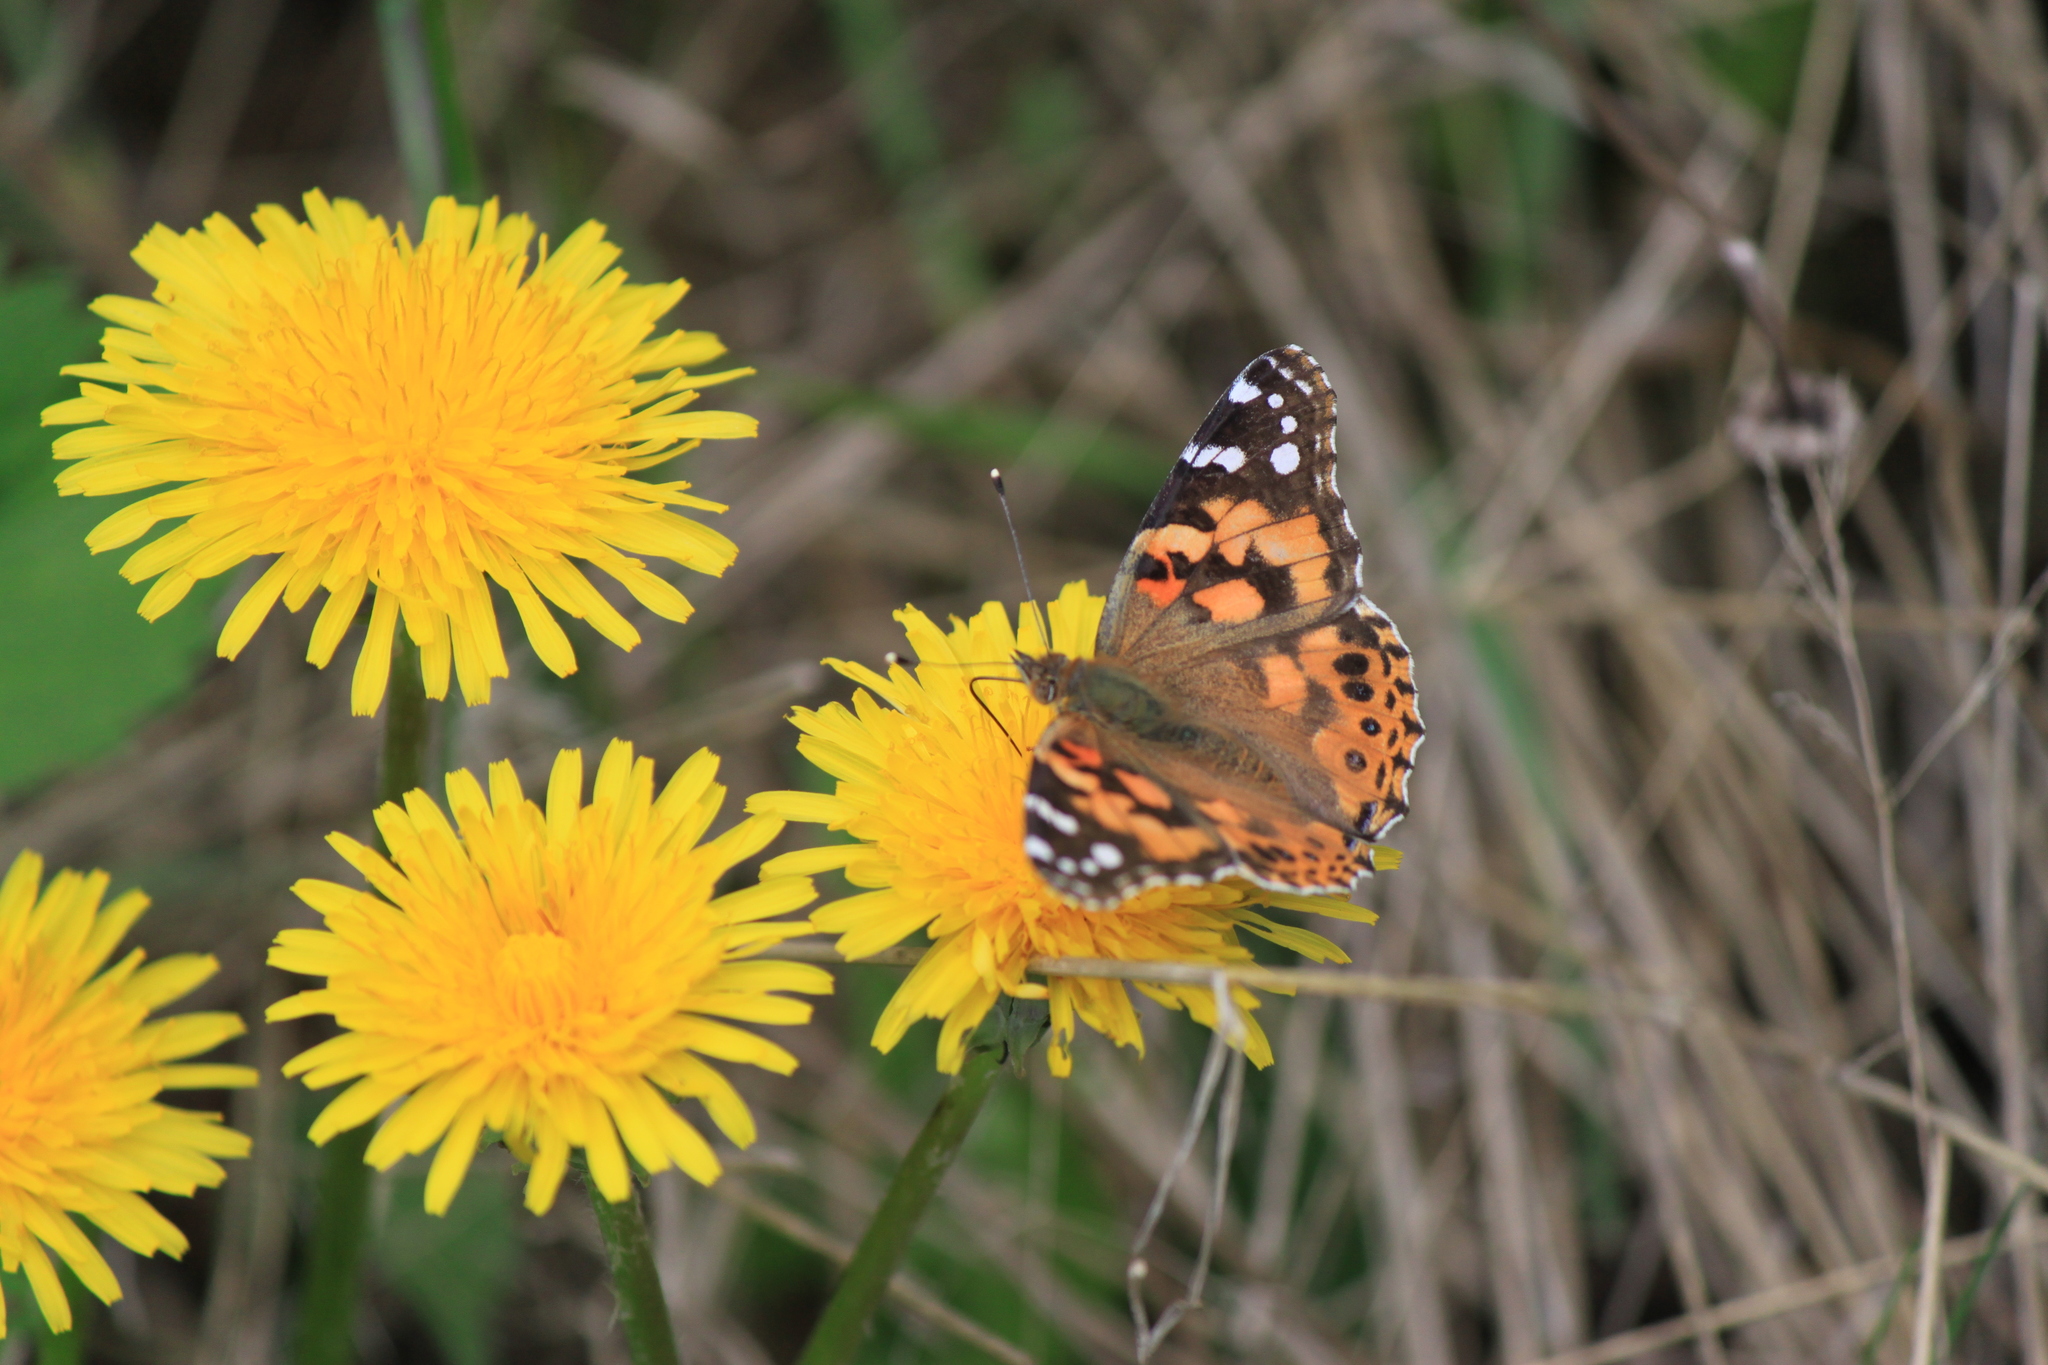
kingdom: Animalia
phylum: Arthropoda
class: Insecta
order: Lepidoptera
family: Nymphalidae
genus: Vanessa
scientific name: Vanessa cardui
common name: Painted lady
